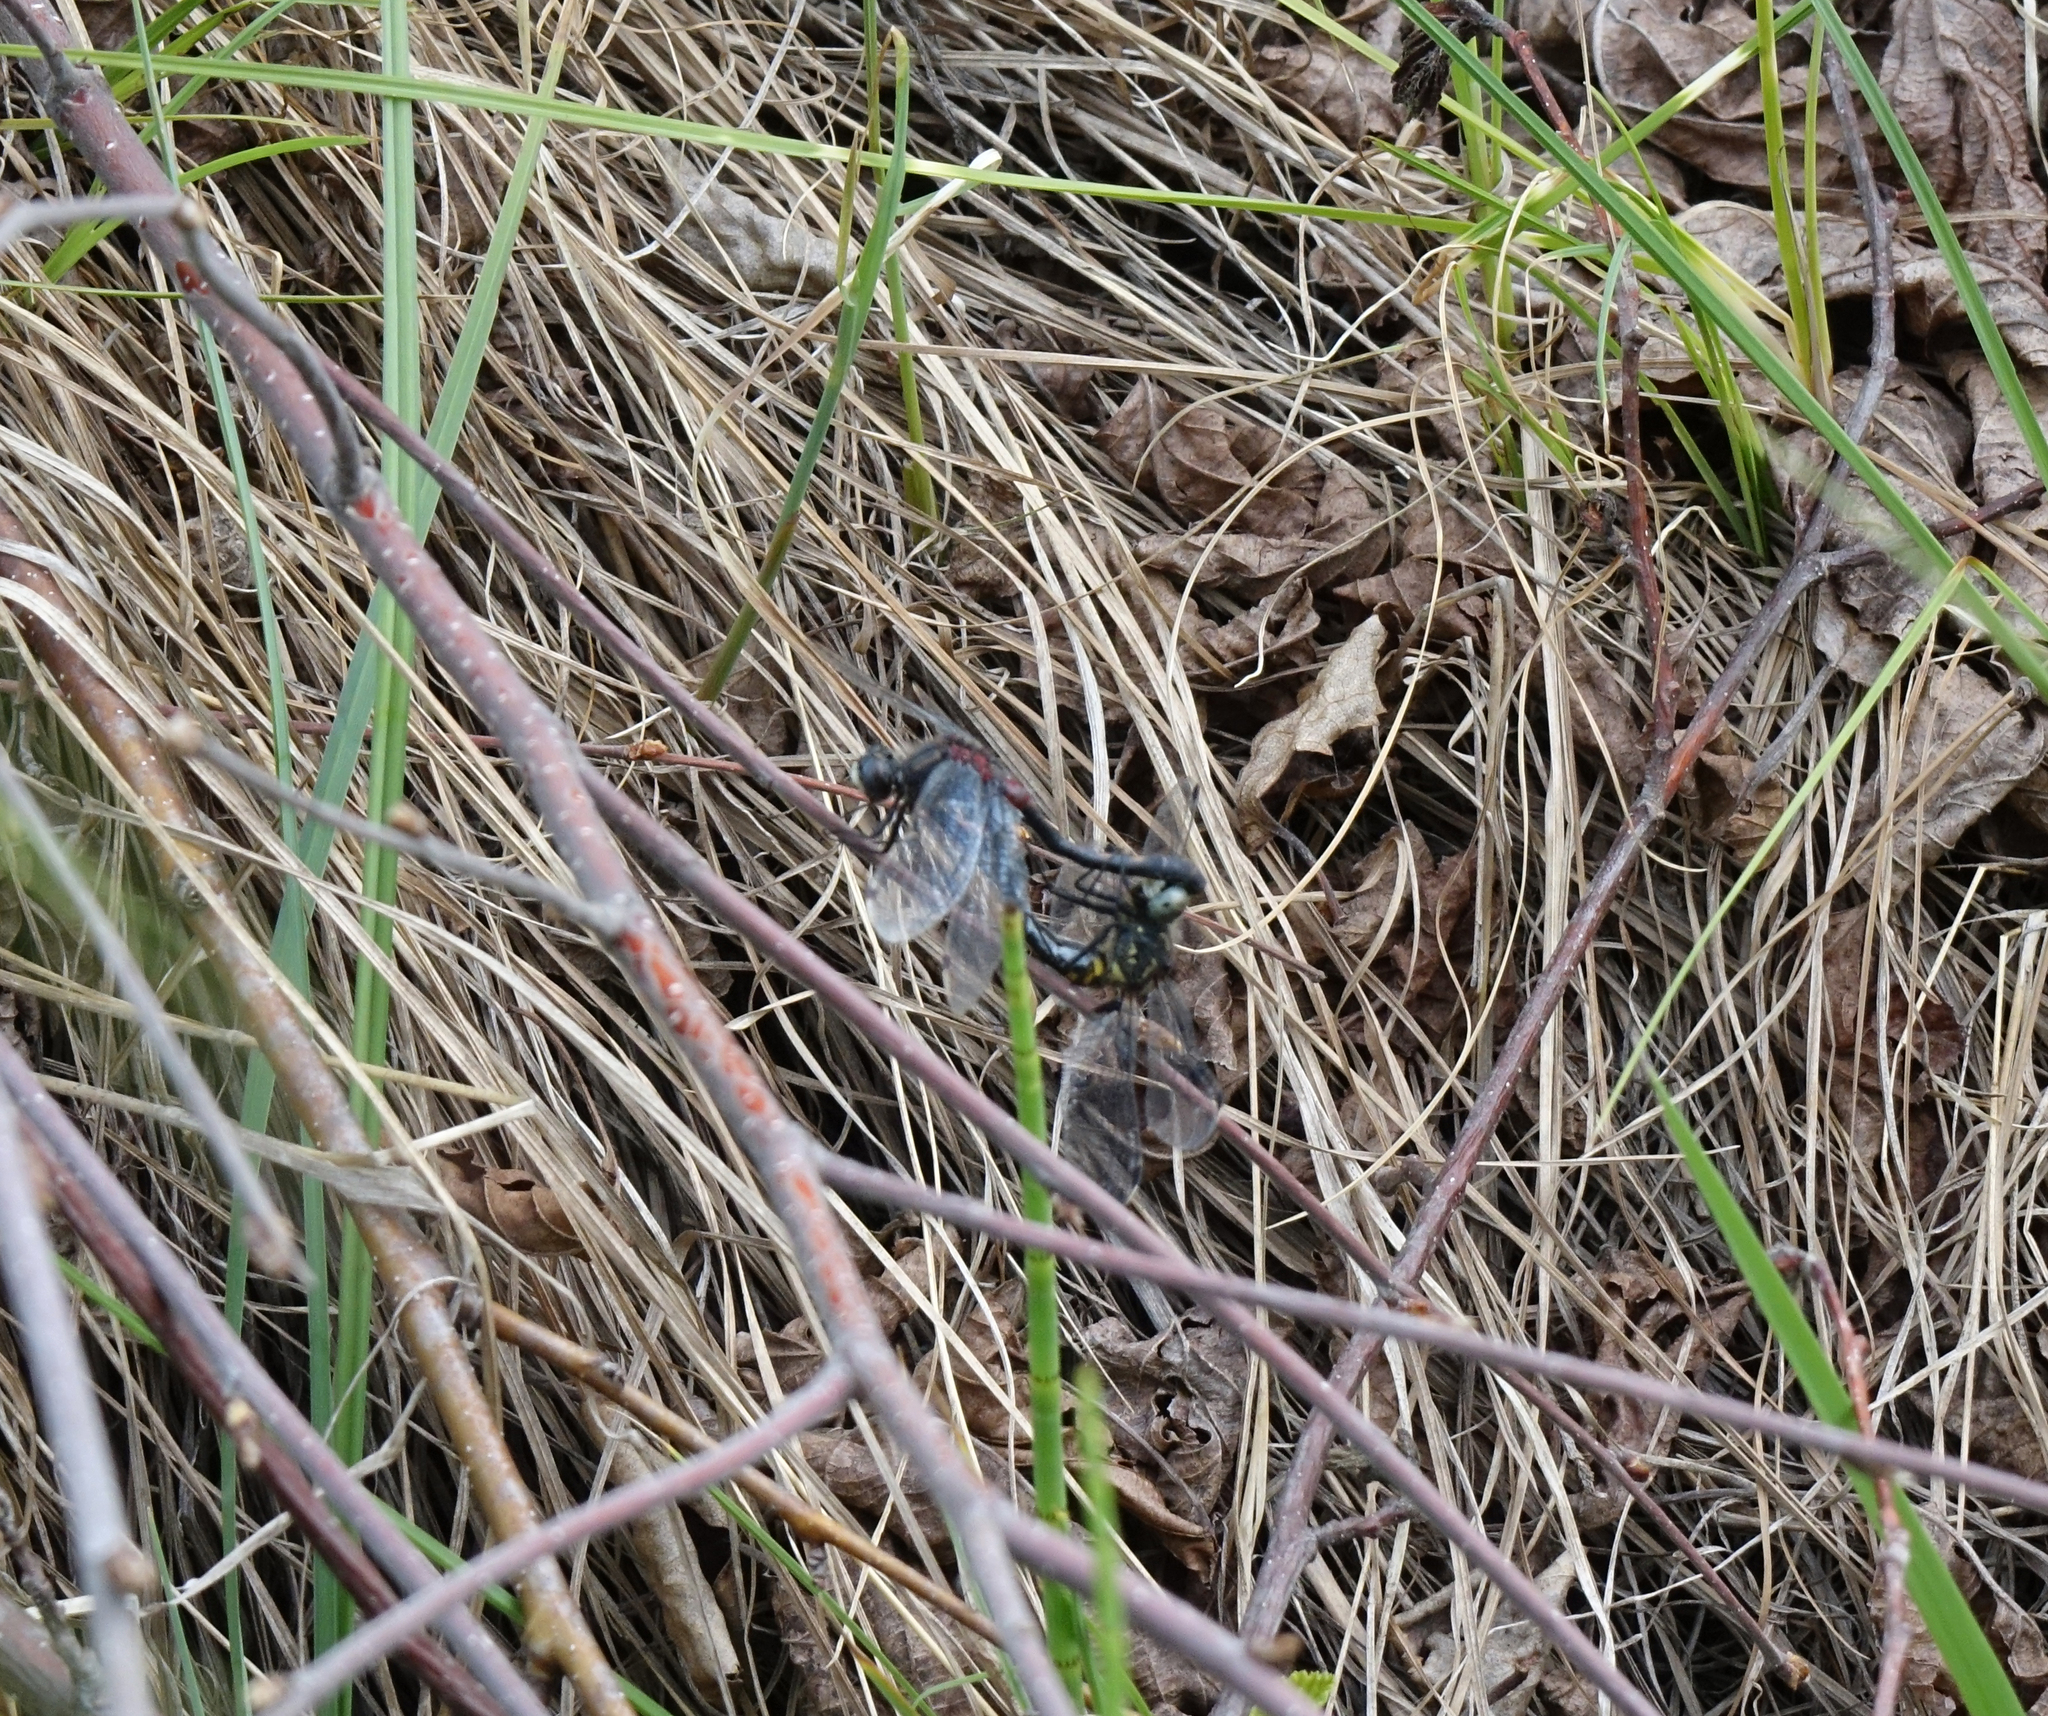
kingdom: Animalia
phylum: Arthropoda
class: Insecta
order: Odonata
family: Libellulidae
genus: Leucorrhinia
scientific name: Leucorrhinia orientalis
